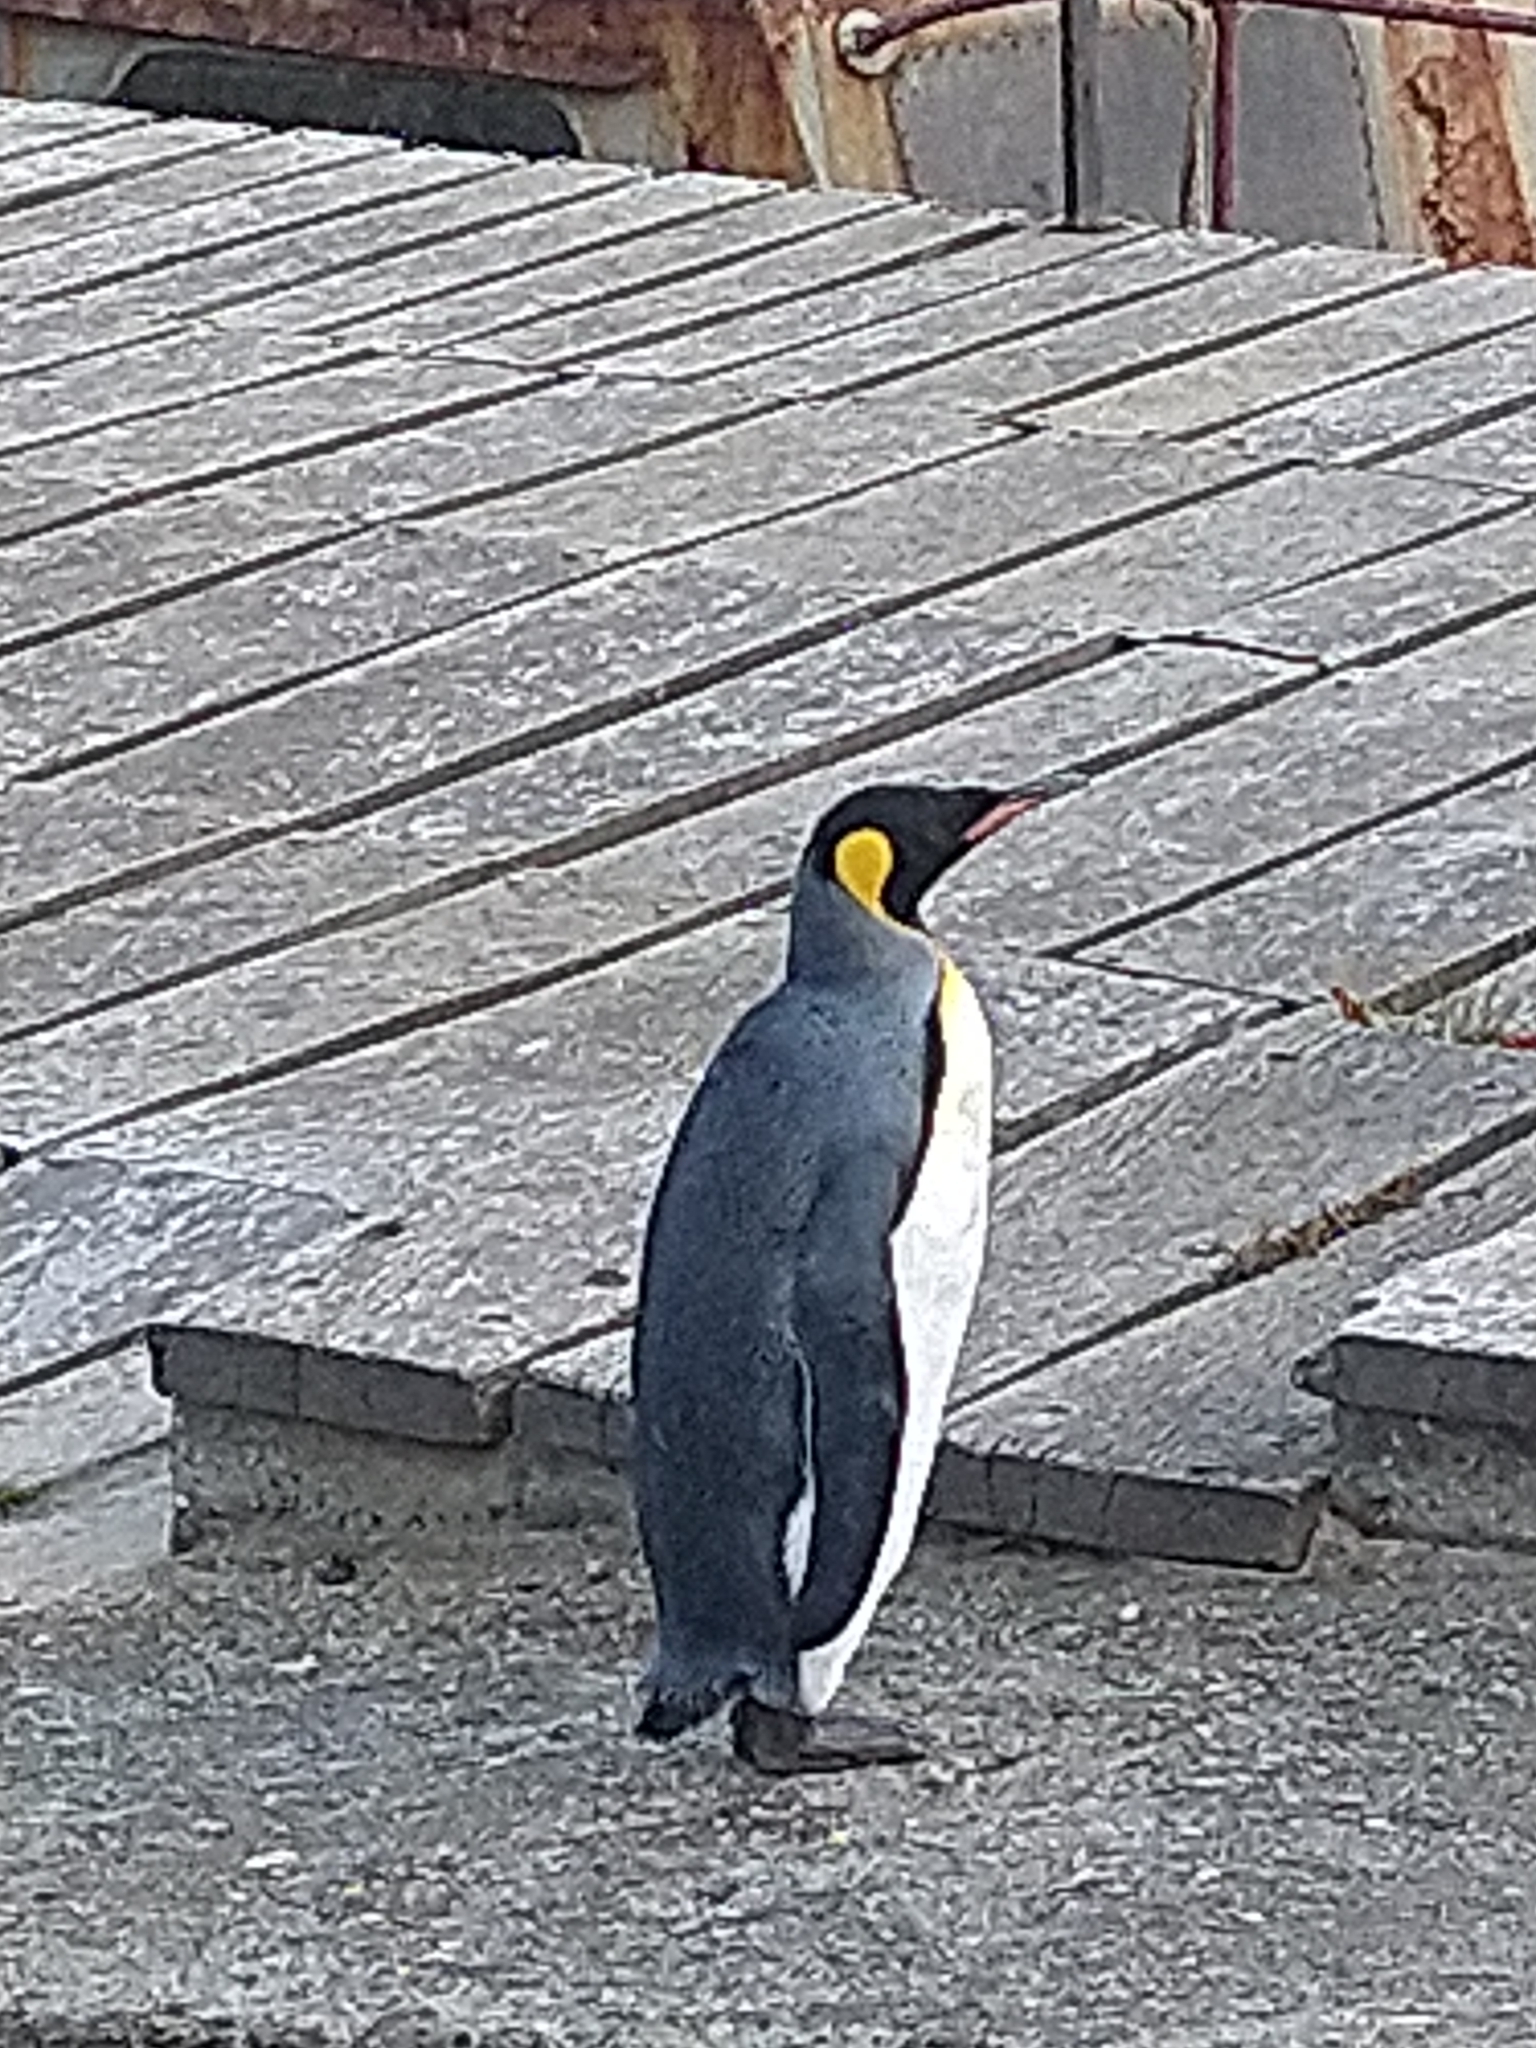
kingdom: Animalia
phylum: Chordata
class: Aves
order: Sphenisciformes
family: Spheniscidae
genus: Aptenodytes
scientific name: Aptenodytes patagonicus
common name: King penguin
